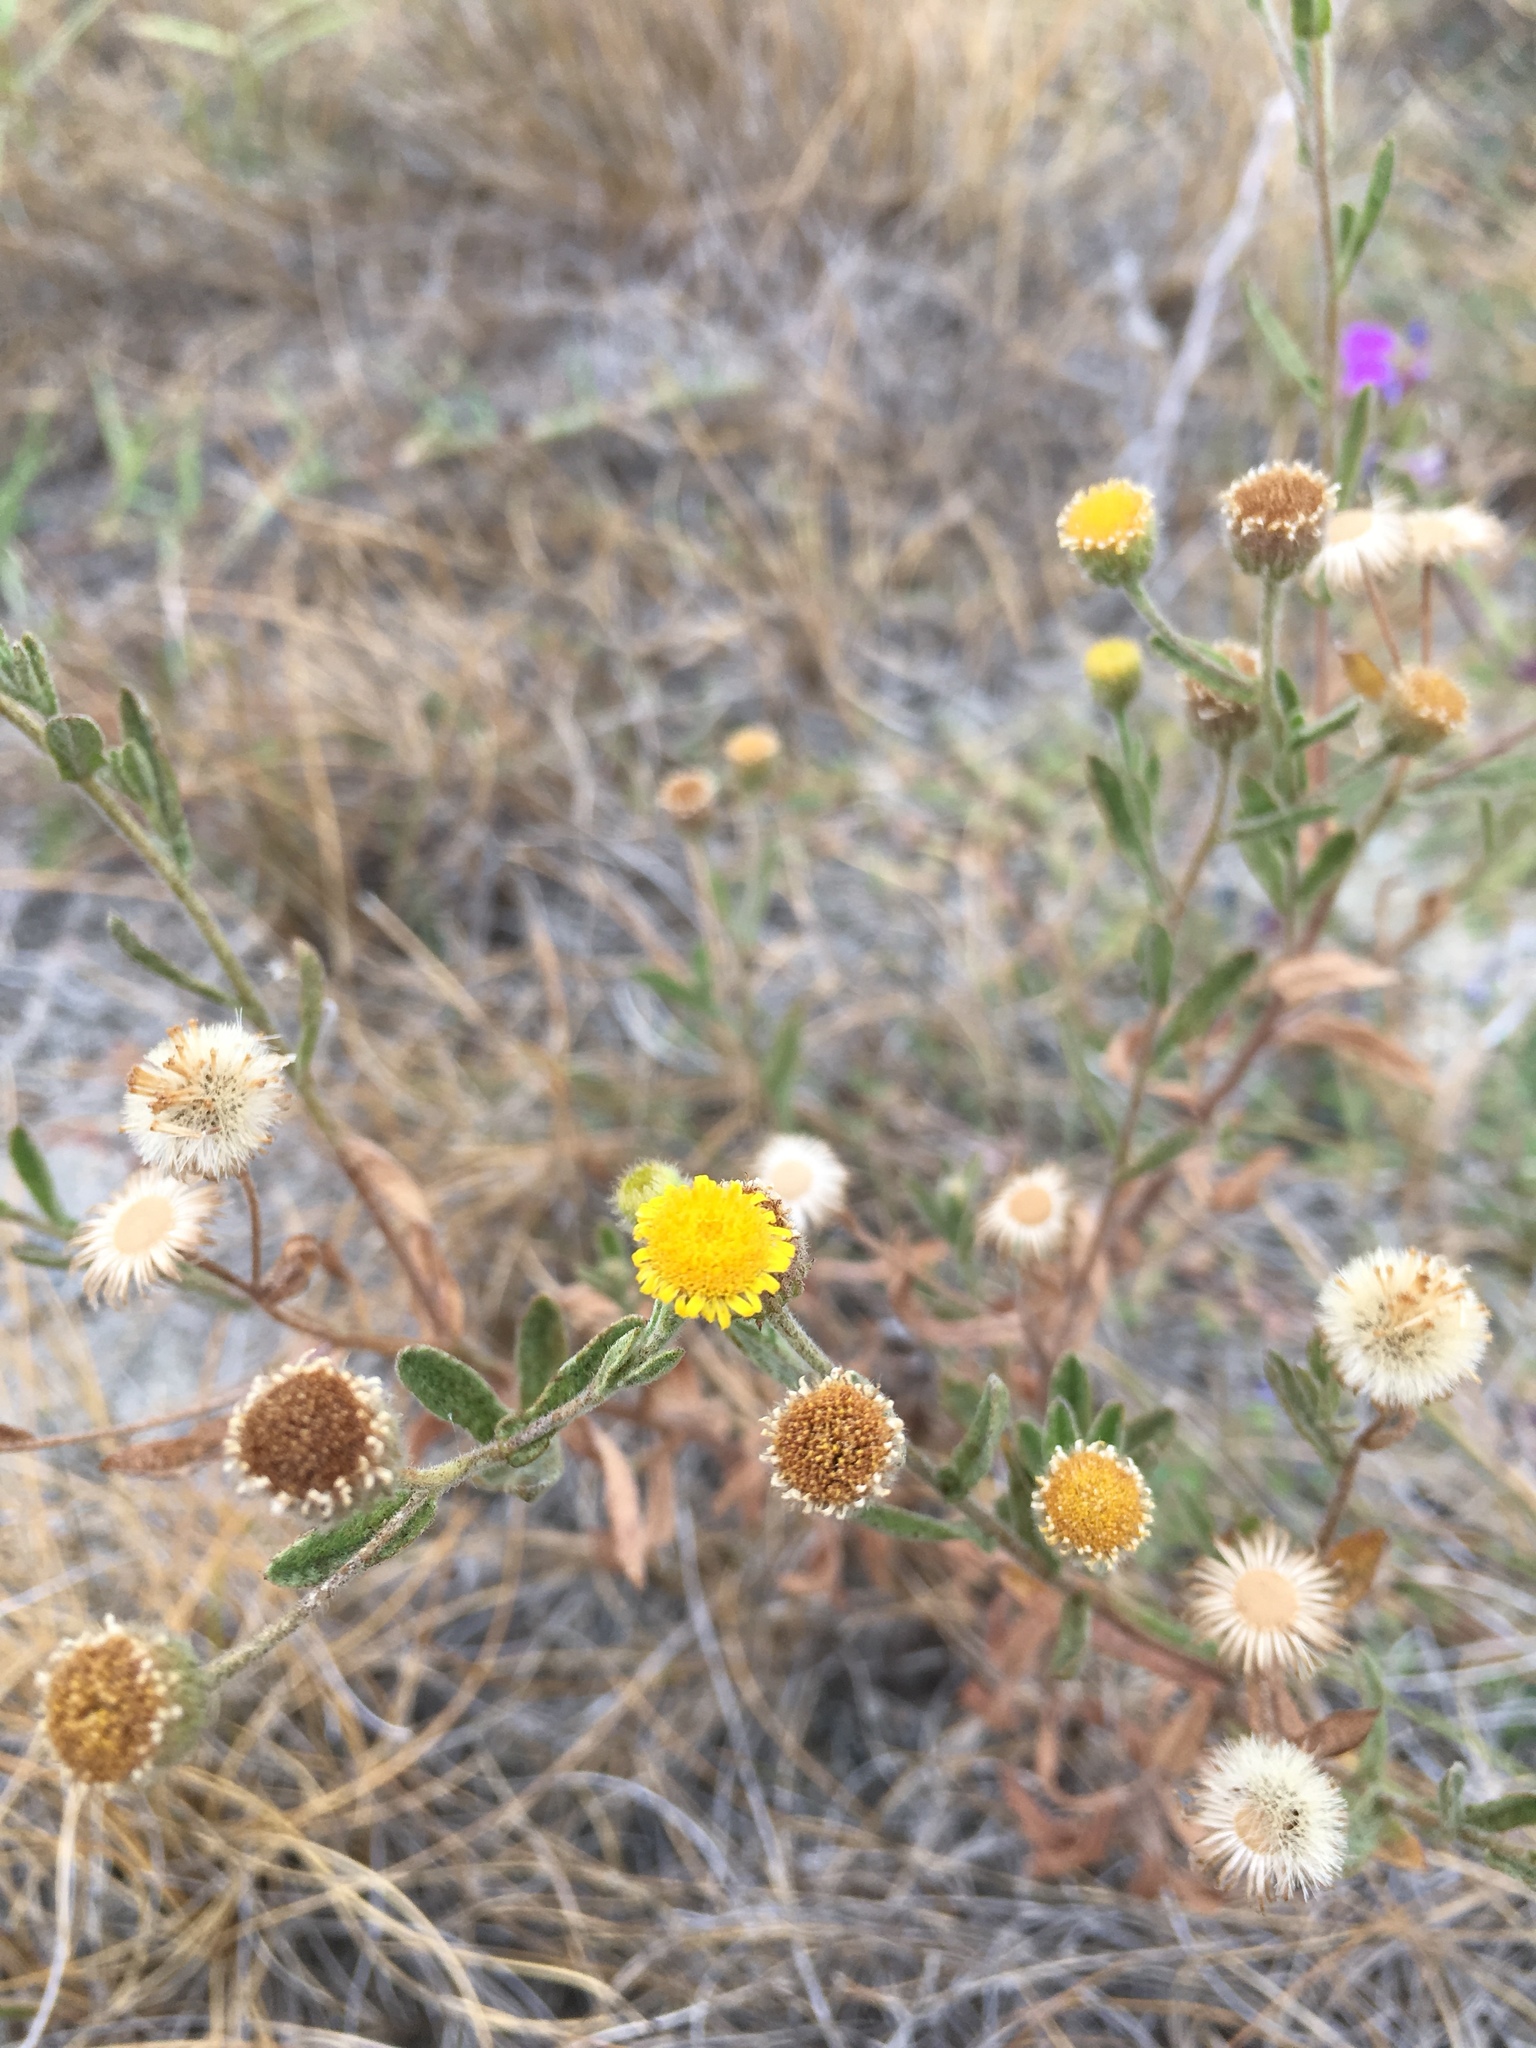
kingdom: Plantae
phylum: Tracheophyta
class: Magnoliopsida
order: Asterales
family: Asteraceae
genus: Pulicaria
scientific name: Pulicaria paludosa
